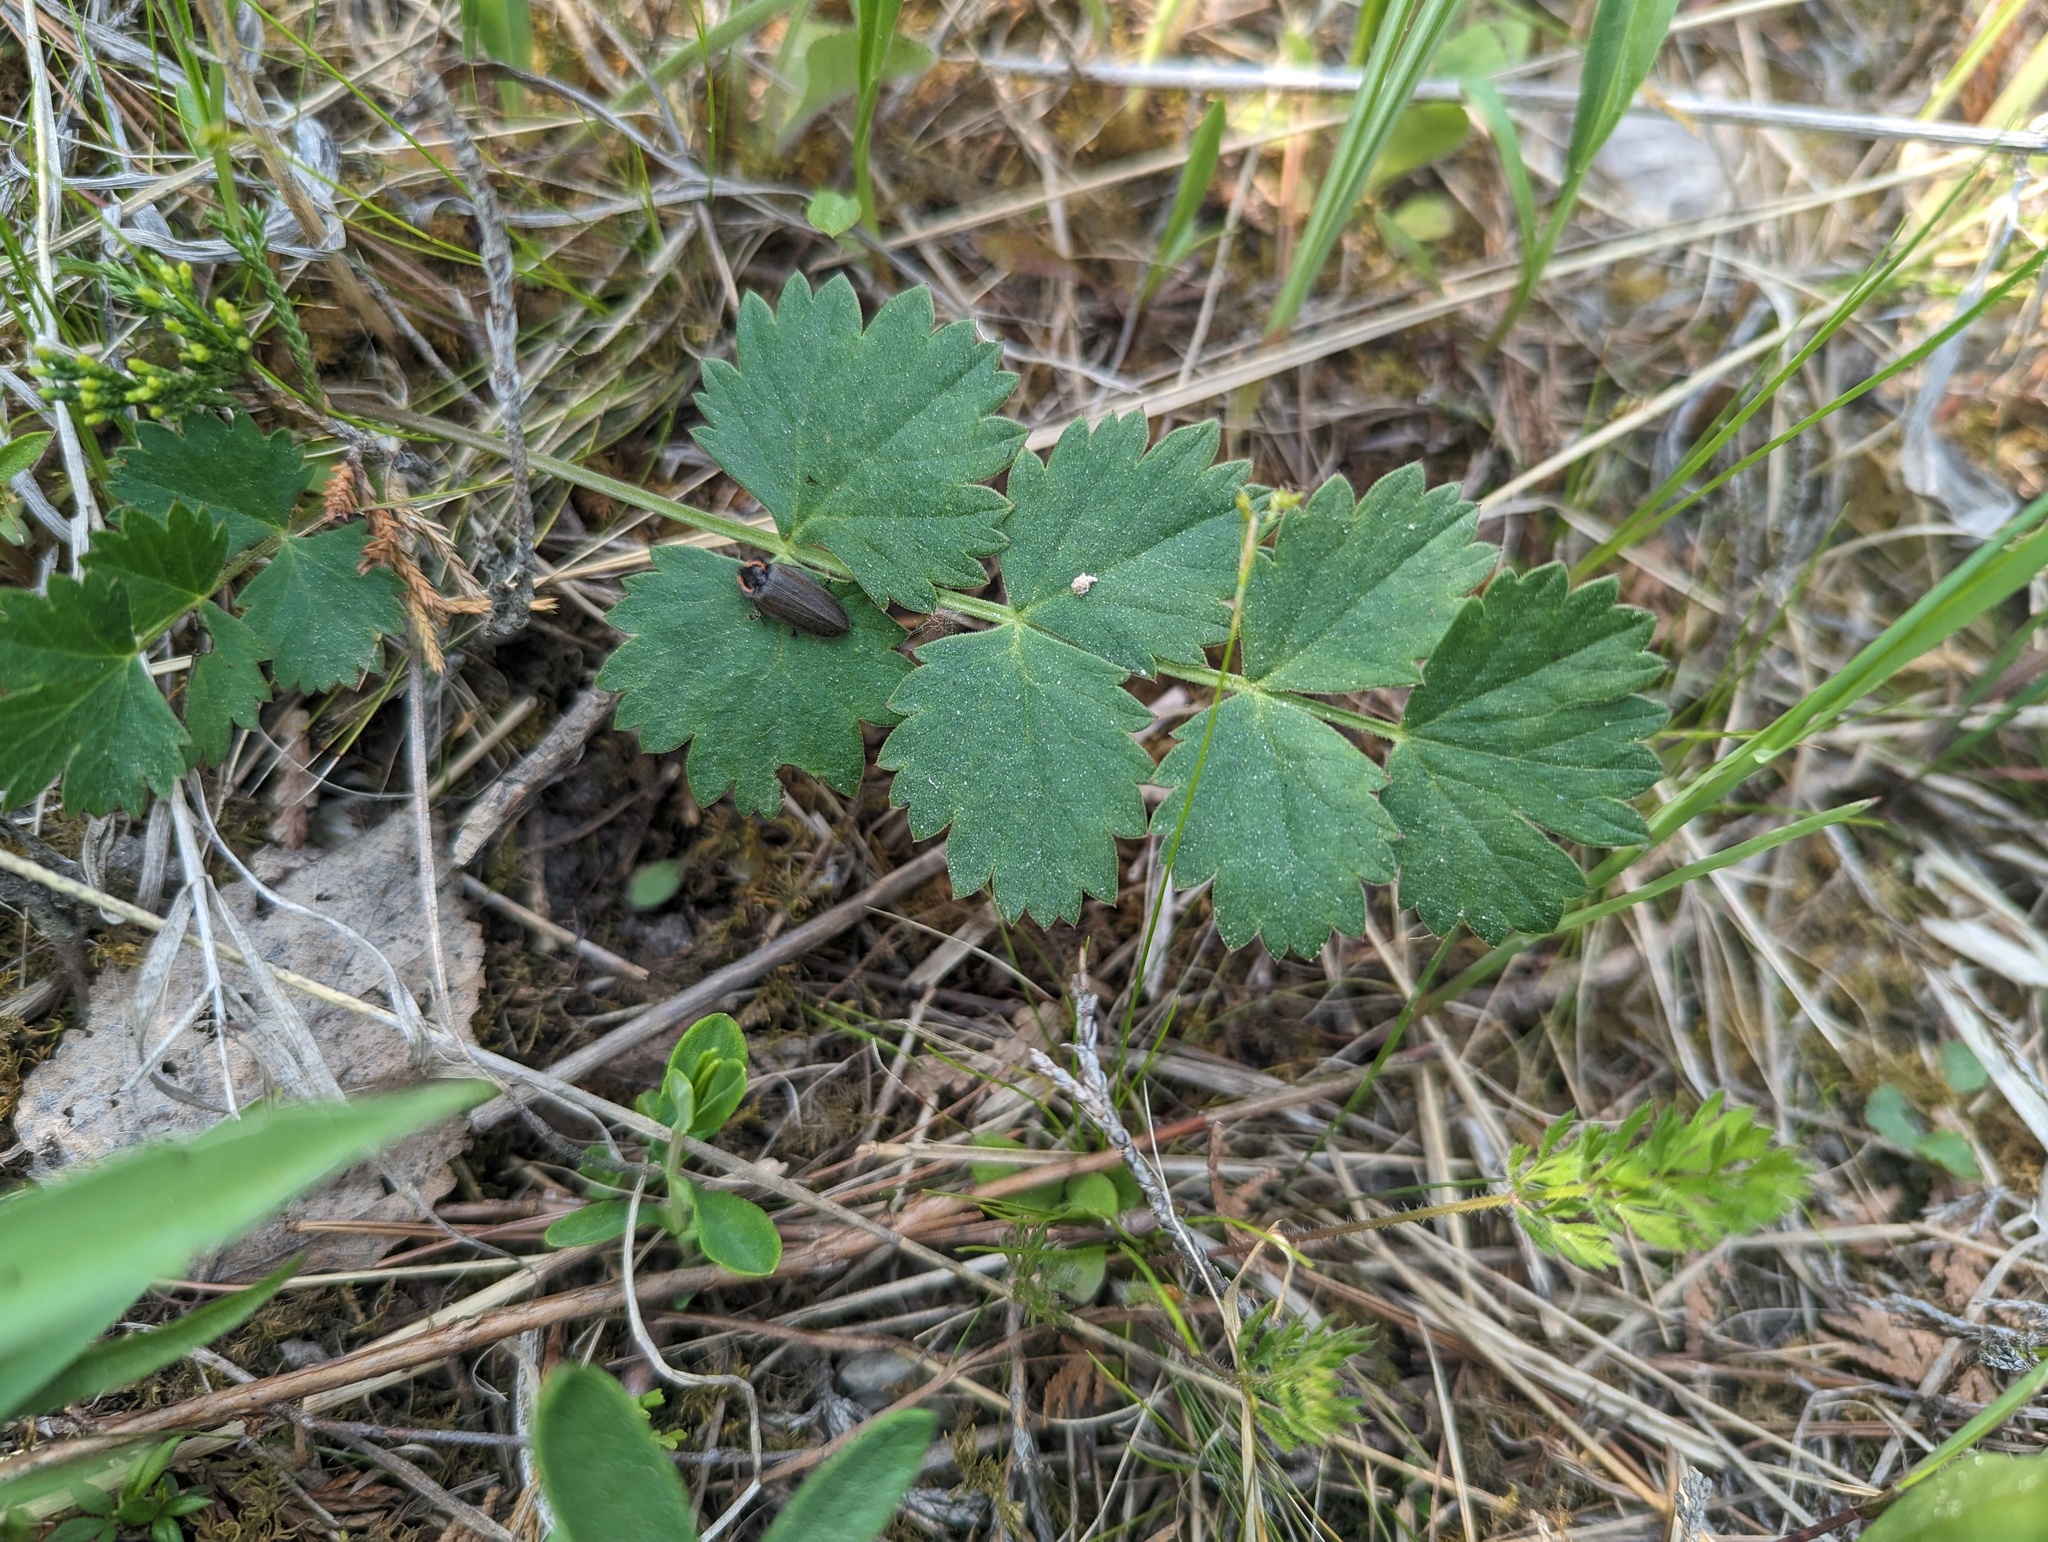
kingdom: Plantae
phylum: Tracheophyta
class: Magnoliopsida
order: Apiales
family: Apiaceae
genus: Pimpinella
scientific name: Pimpinella saxifraga
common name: Burnet-saxifrage
